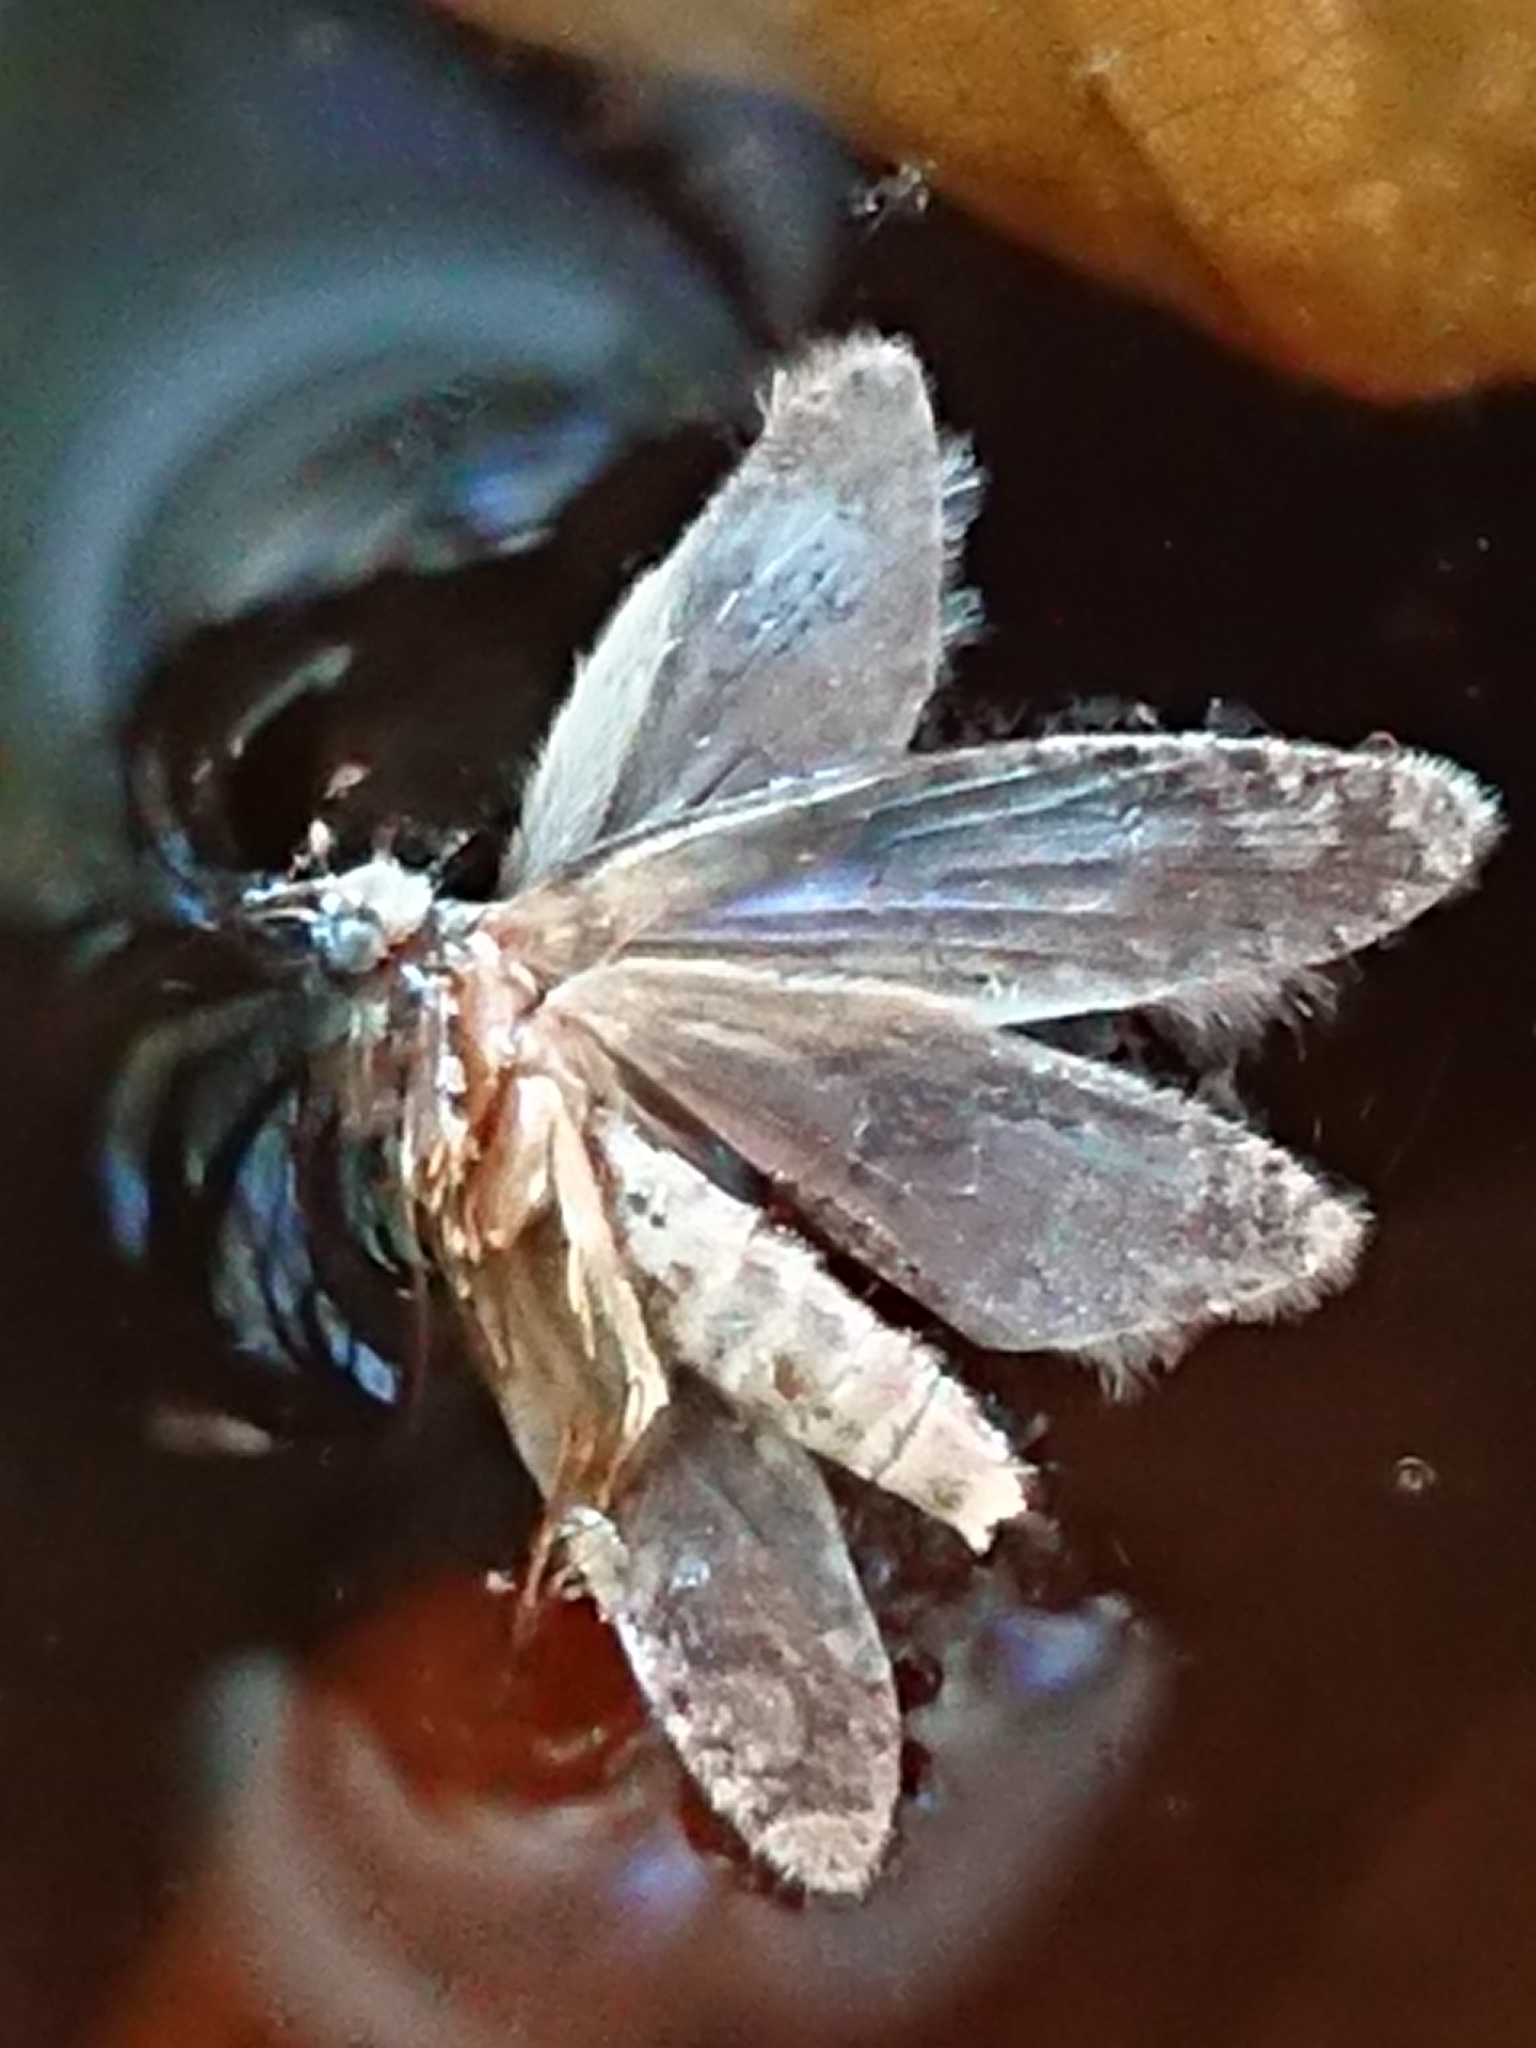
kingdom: Animalia
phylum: Arthropoda
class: Insecta
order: Lepidoptera
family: Tineidae
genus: Lysiphragma
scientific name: Lysiphragma howesii
